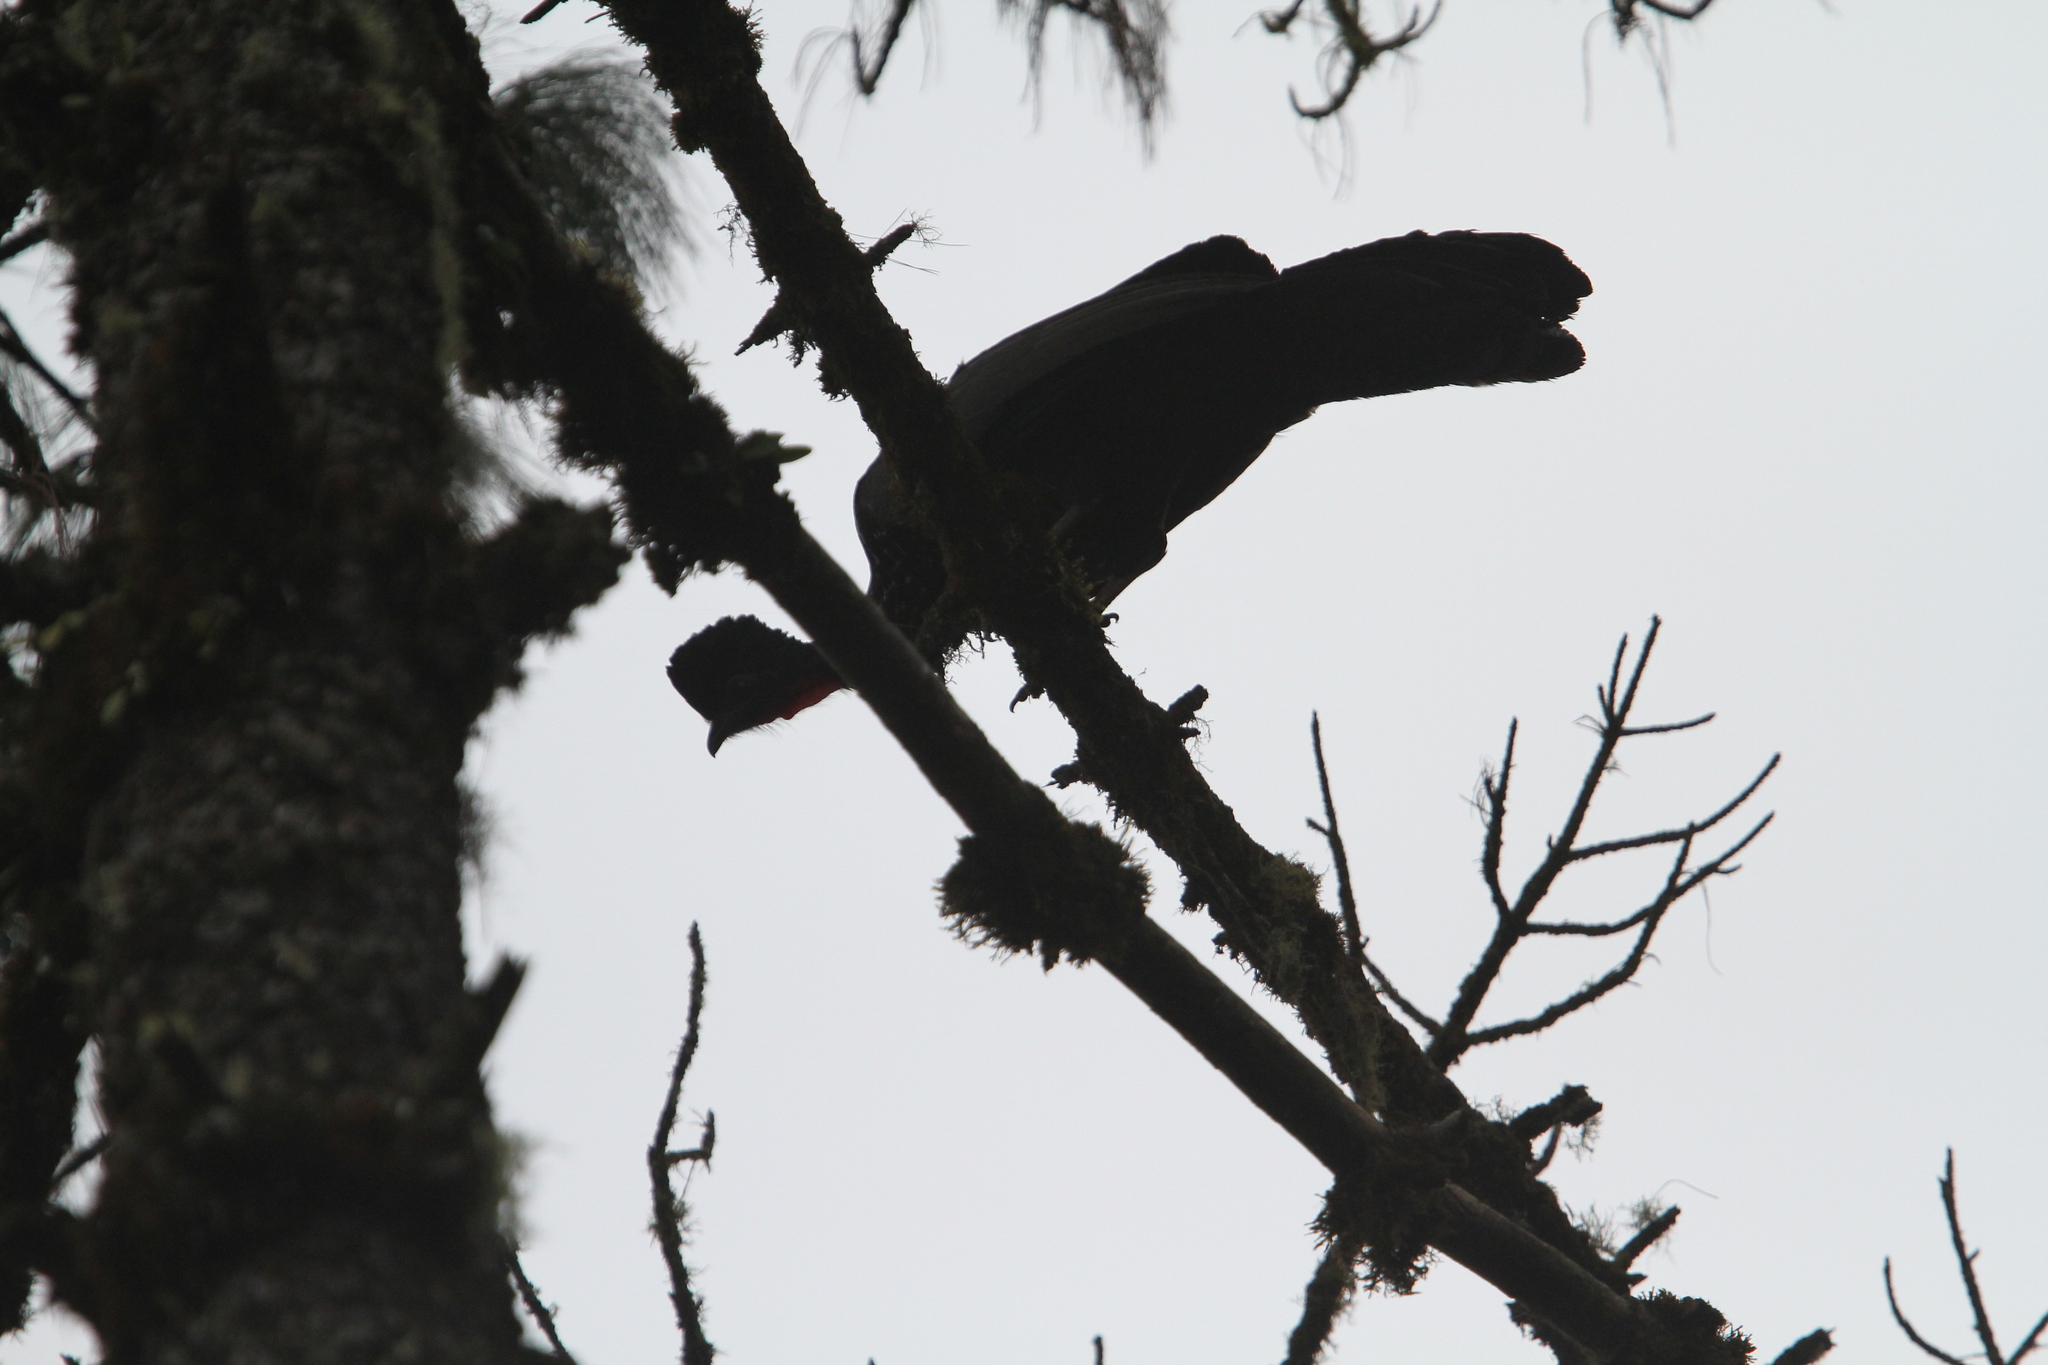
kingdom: Animalia
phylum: Chordata
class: Aves
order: Galliformes
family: Cracidae
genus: Penelope
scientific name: Penelope purpurascens
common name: Crested guan
